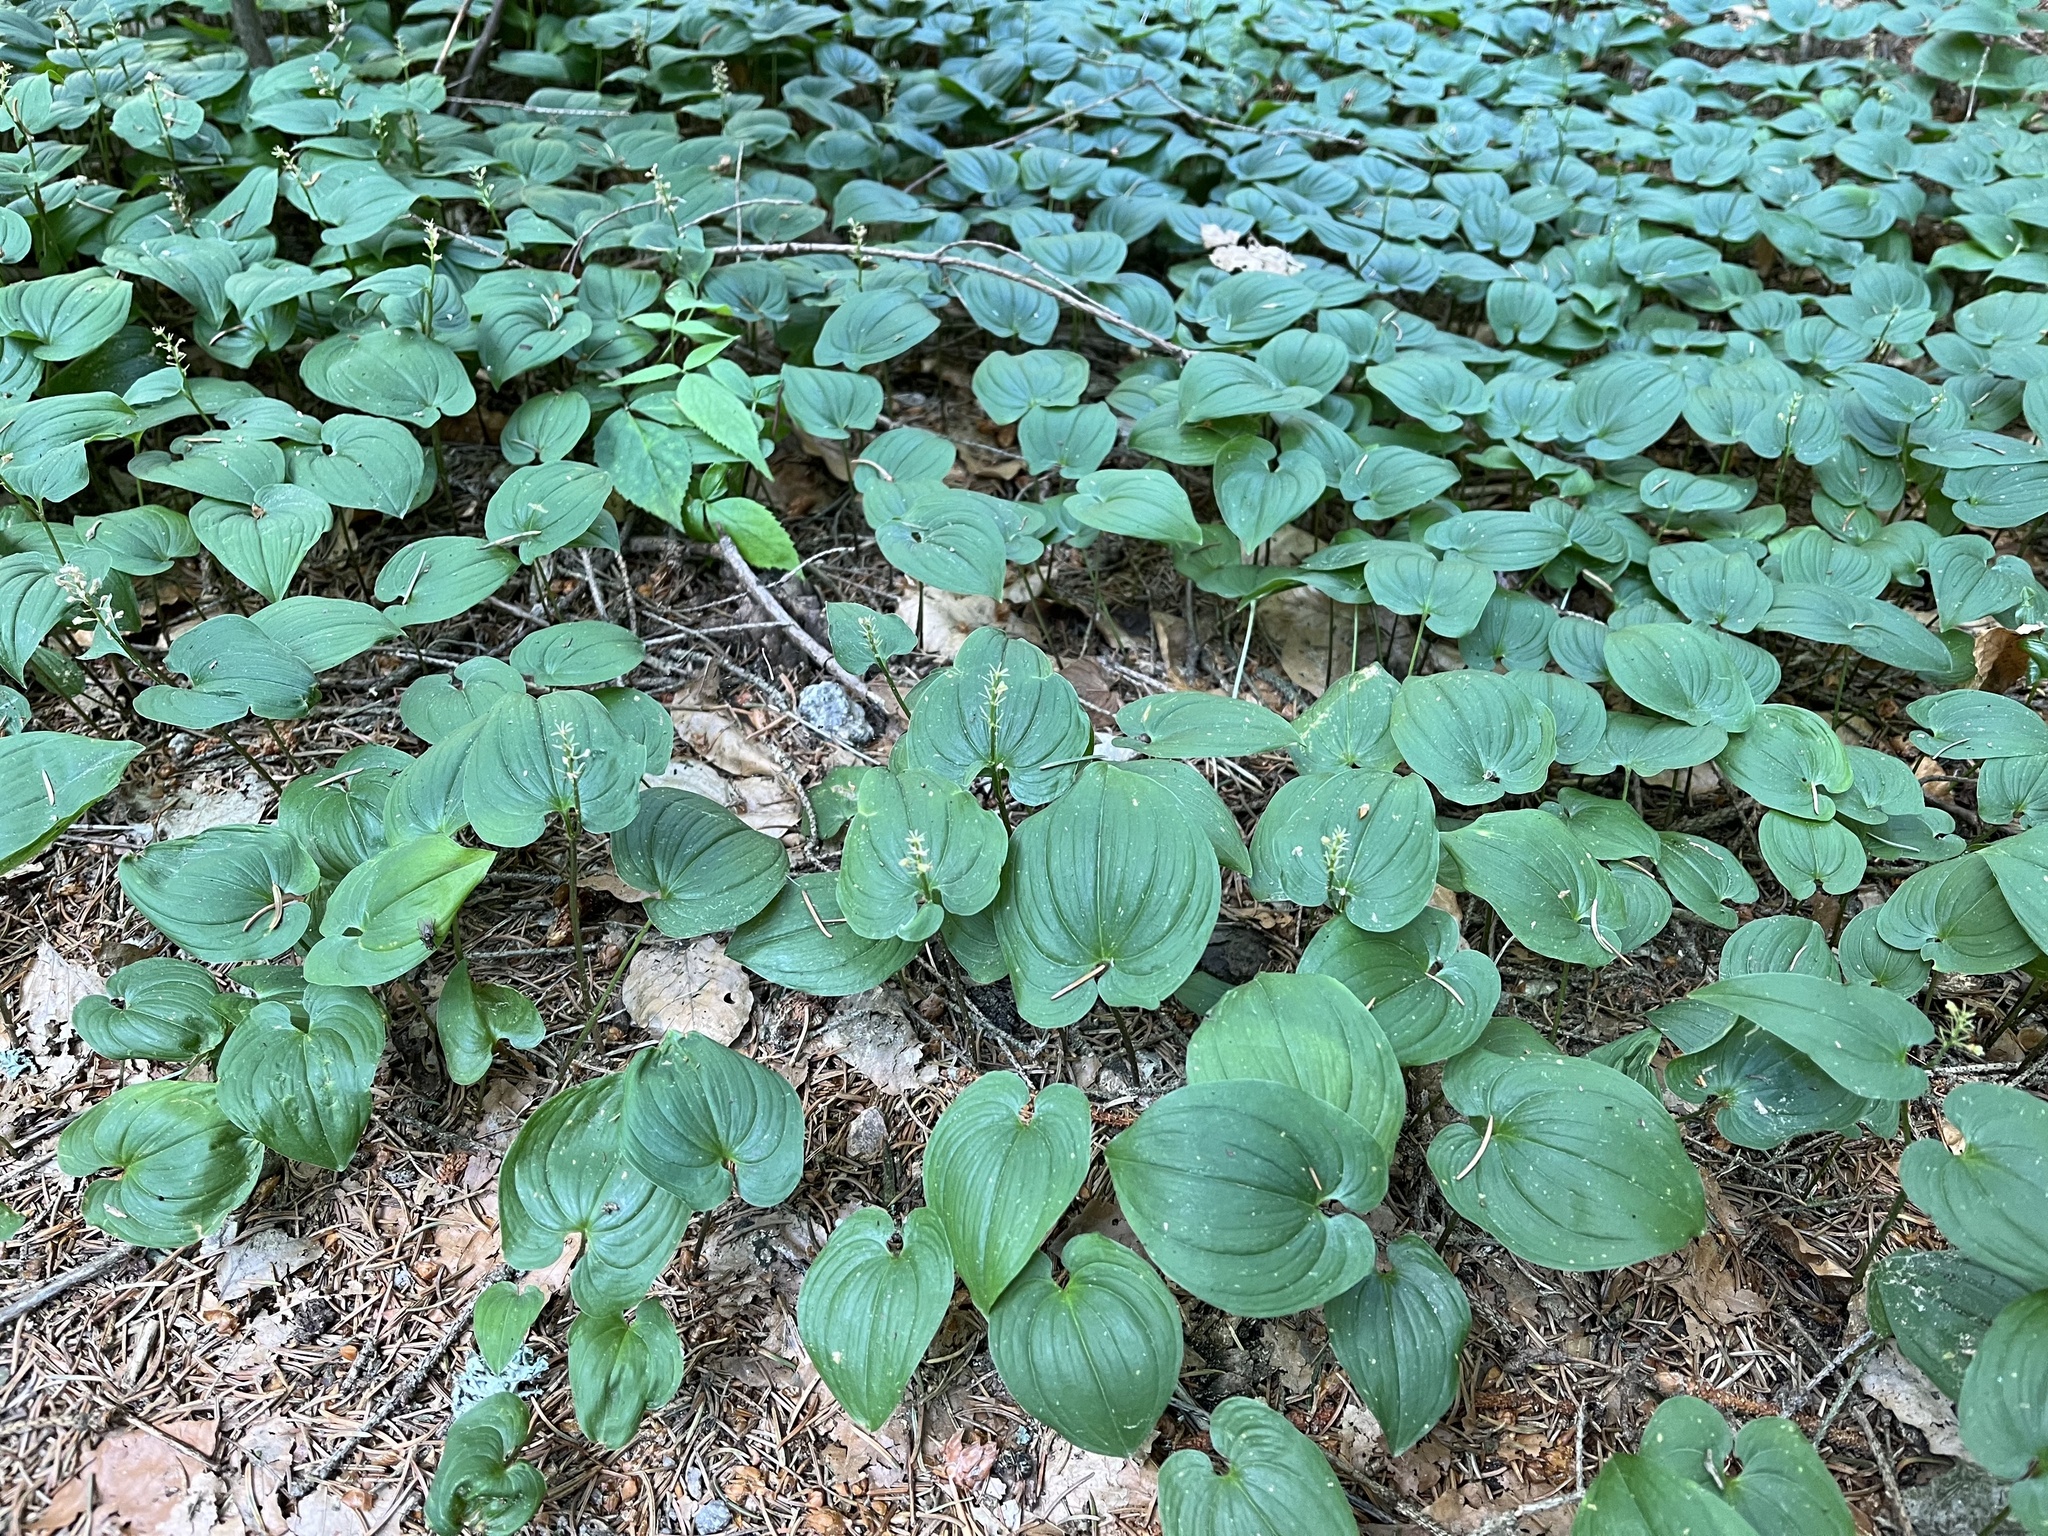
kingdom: Plantae
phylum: Tracheophyta
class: Liliopsida
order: Asparagales
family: Asparagaceae
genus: Maianthemum
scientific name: Maianthemum bifolium
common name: May lily
